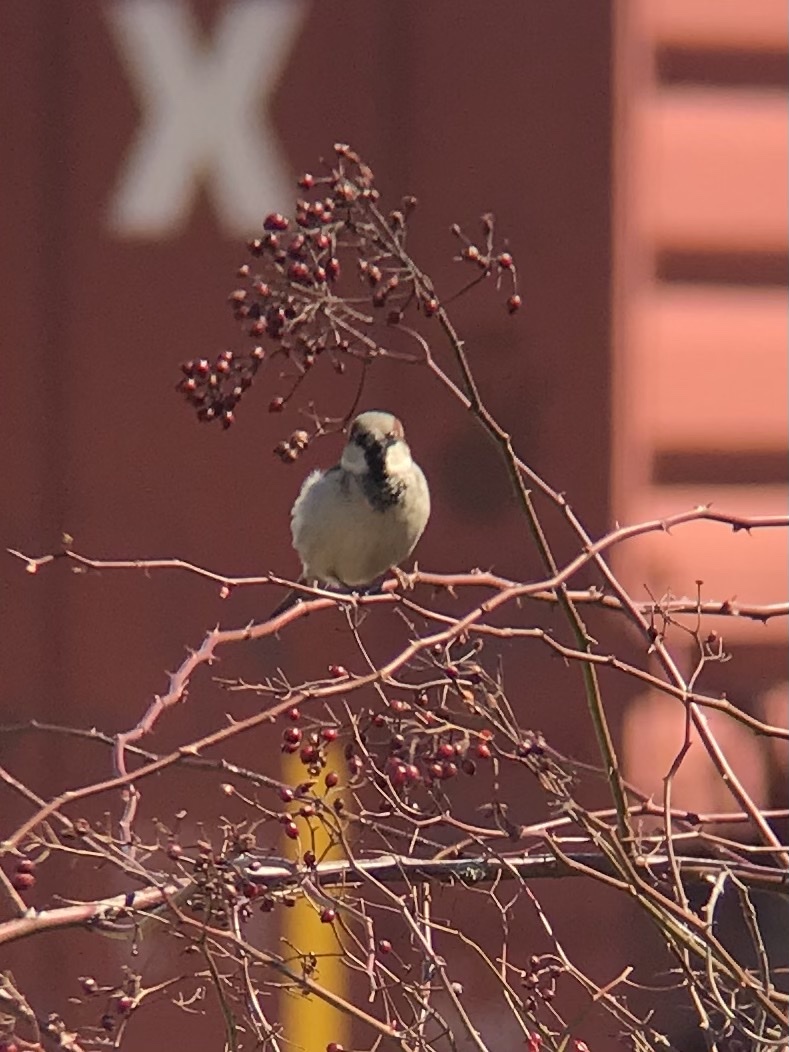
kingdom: Animalia
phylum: Chordata
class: Aves
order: Passeriformes
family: Passeridae
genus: Passer
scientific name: Passer domesticus
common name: House sparrow
